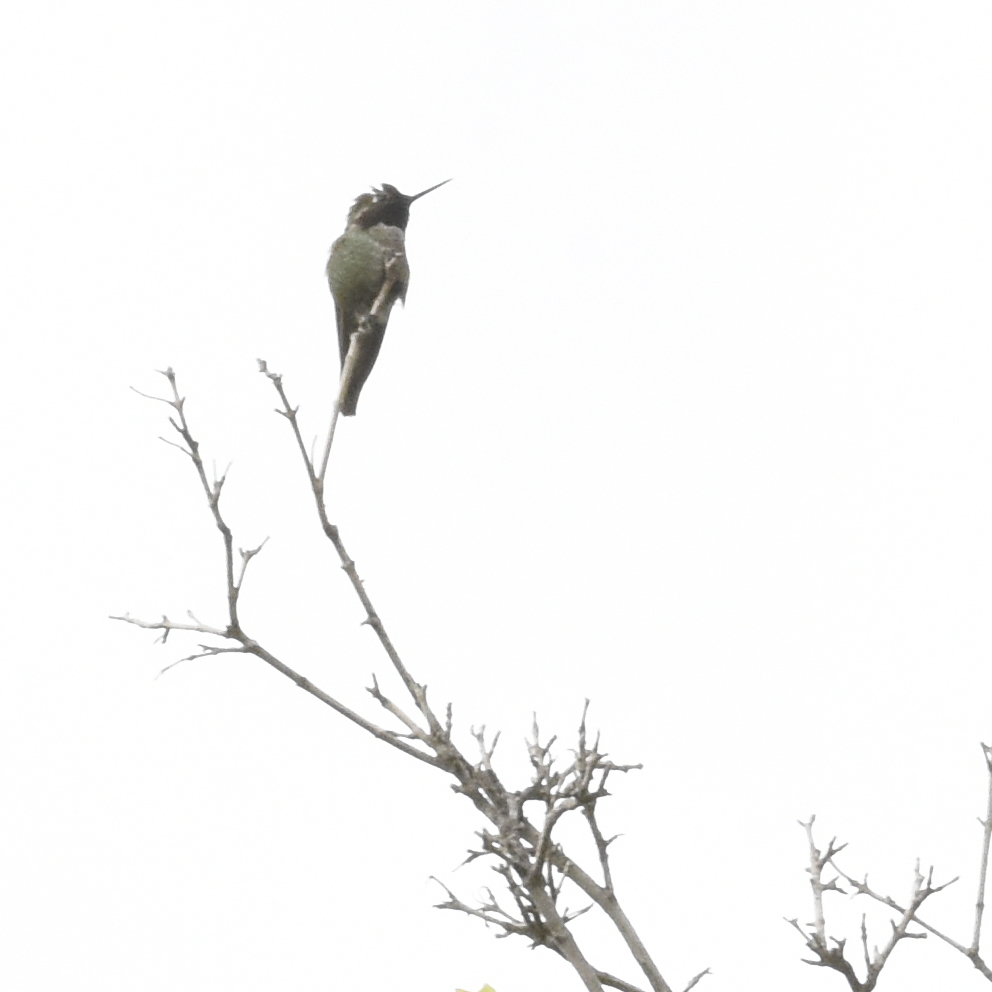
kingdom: Animalia
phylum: Chordata
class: Aves
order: Apodiformes
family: Trochilidae
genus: Calypte
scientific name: Calypte anna
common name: Anna's hummingbird
